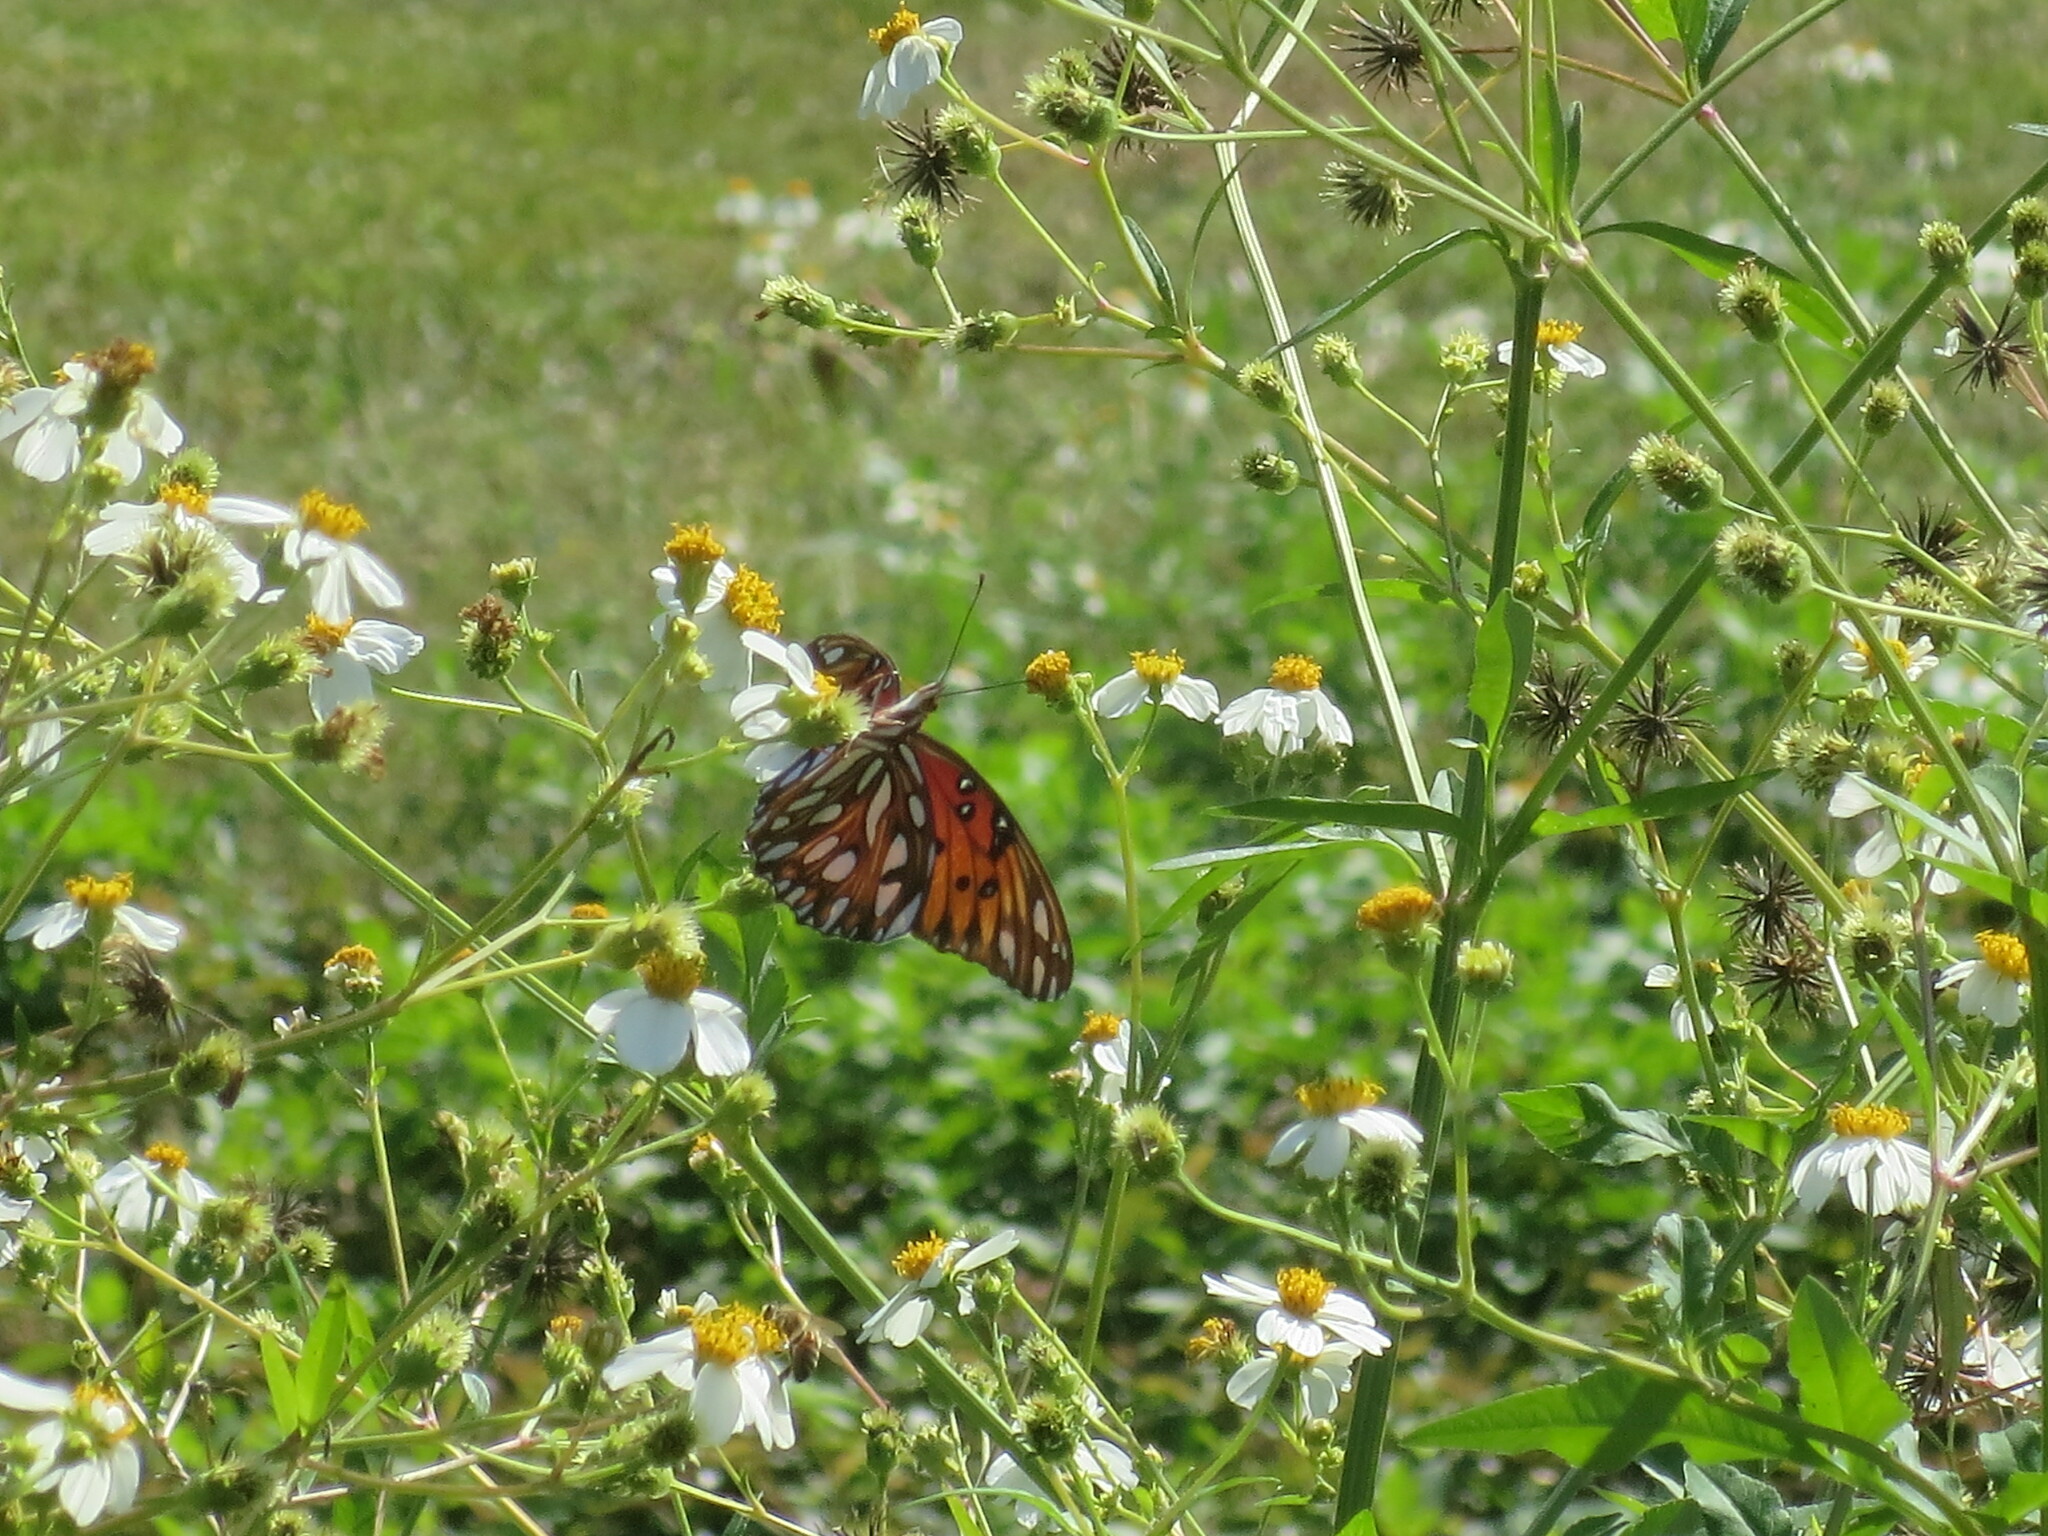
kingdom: Animalia
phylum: Arthropoda
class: Insecta
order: Lepidoptera
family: Nymphalidae
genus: Dione
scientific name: Dione vanillae
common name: Gulf fritillary
